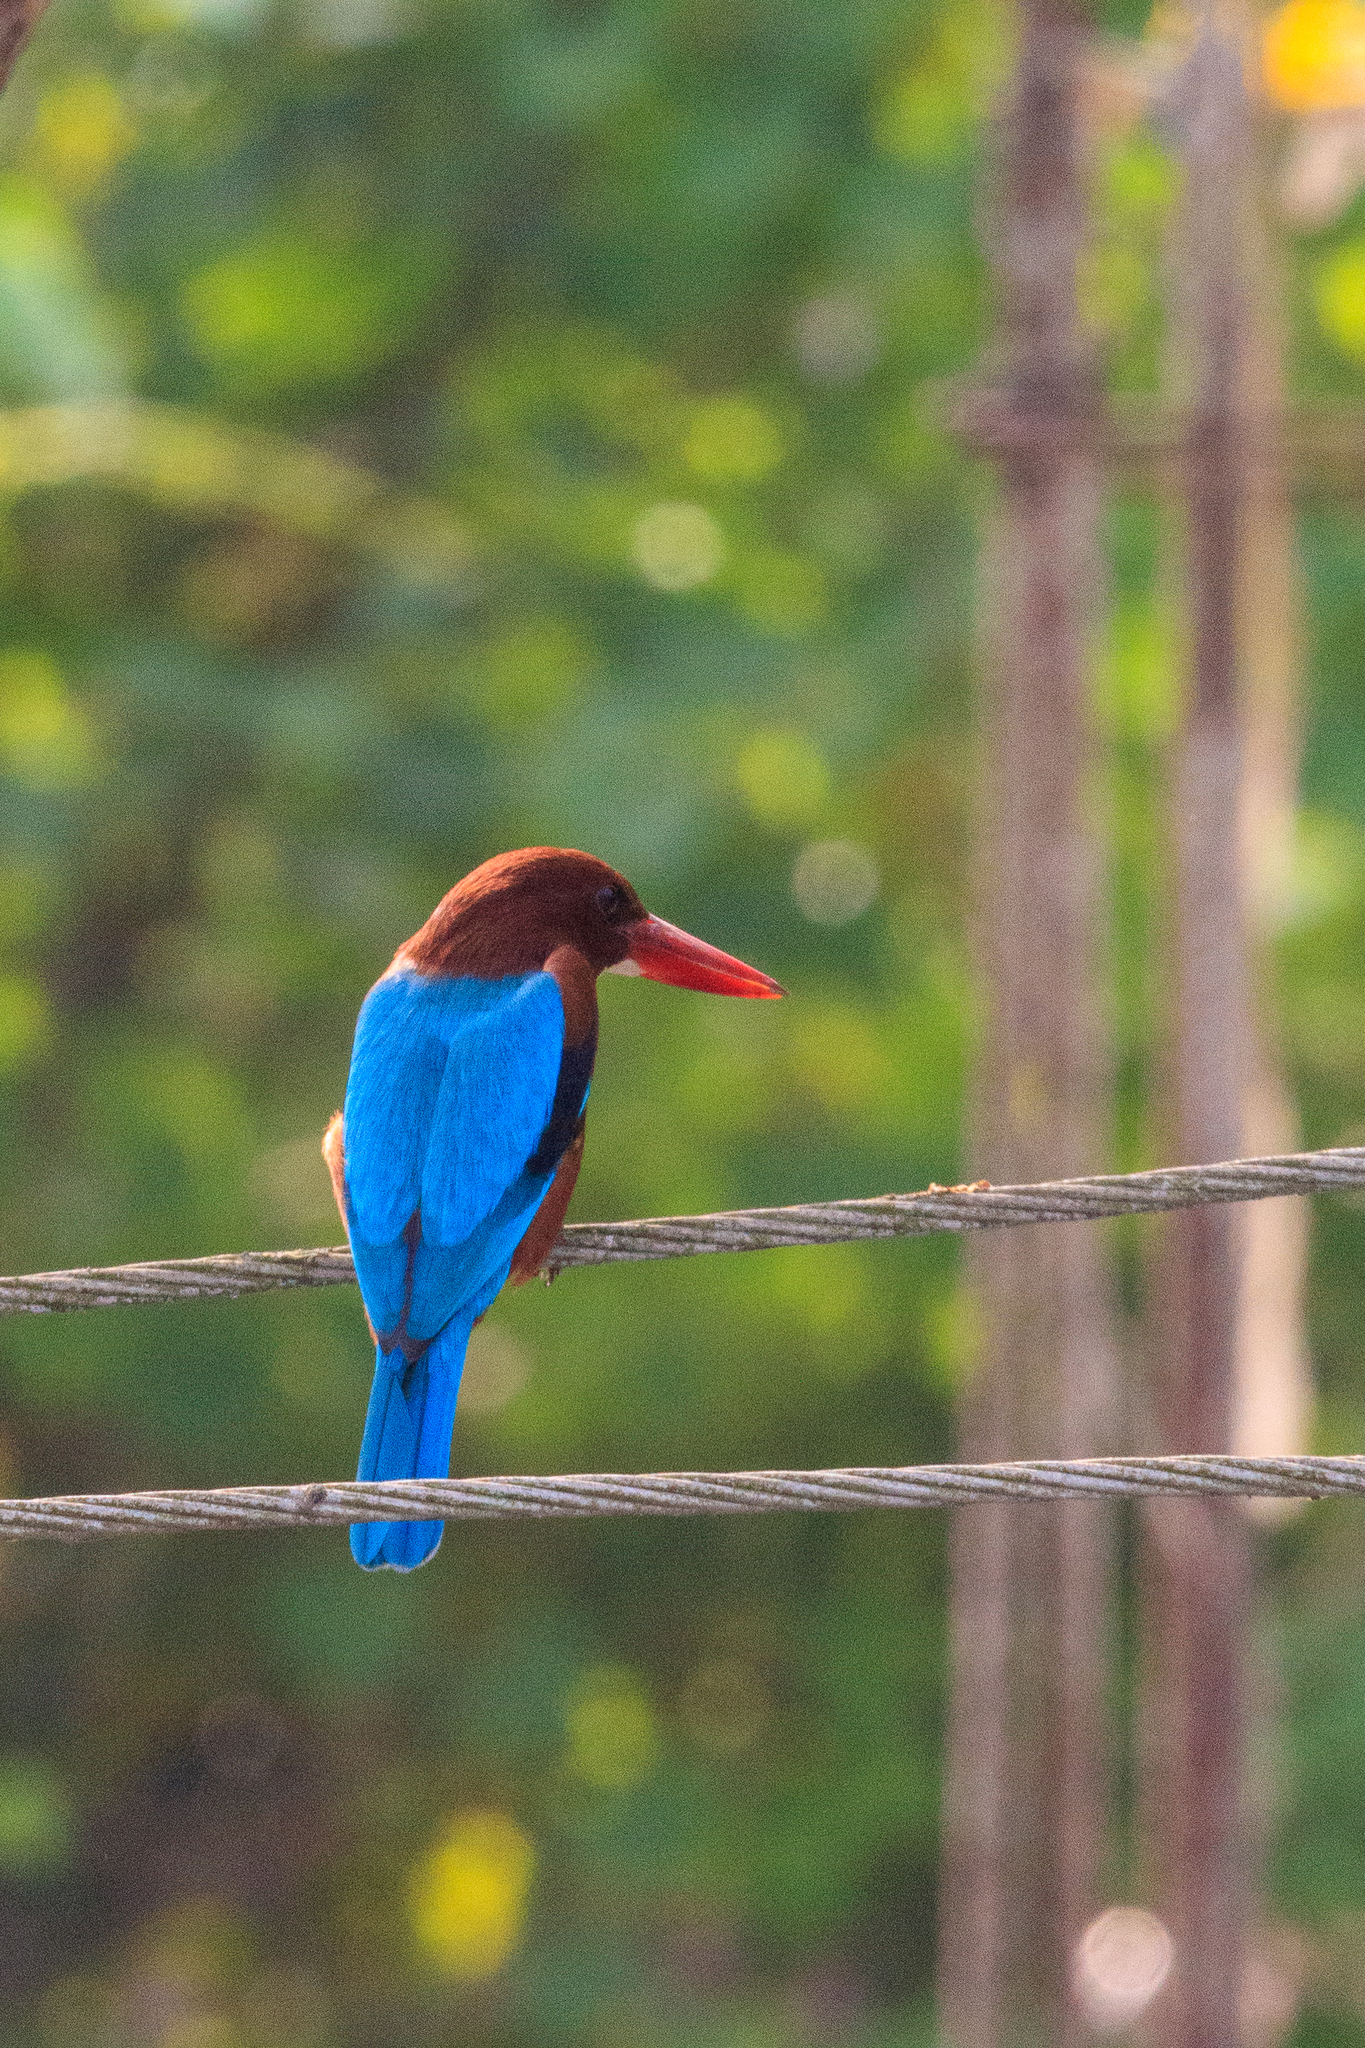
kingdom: Animalia
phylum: Chordata
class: Aves
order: Coraciiformes
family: Alcedinidae
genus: Halcyon
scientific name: Halcyon smyrnensis
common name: White-throated kingfisher
